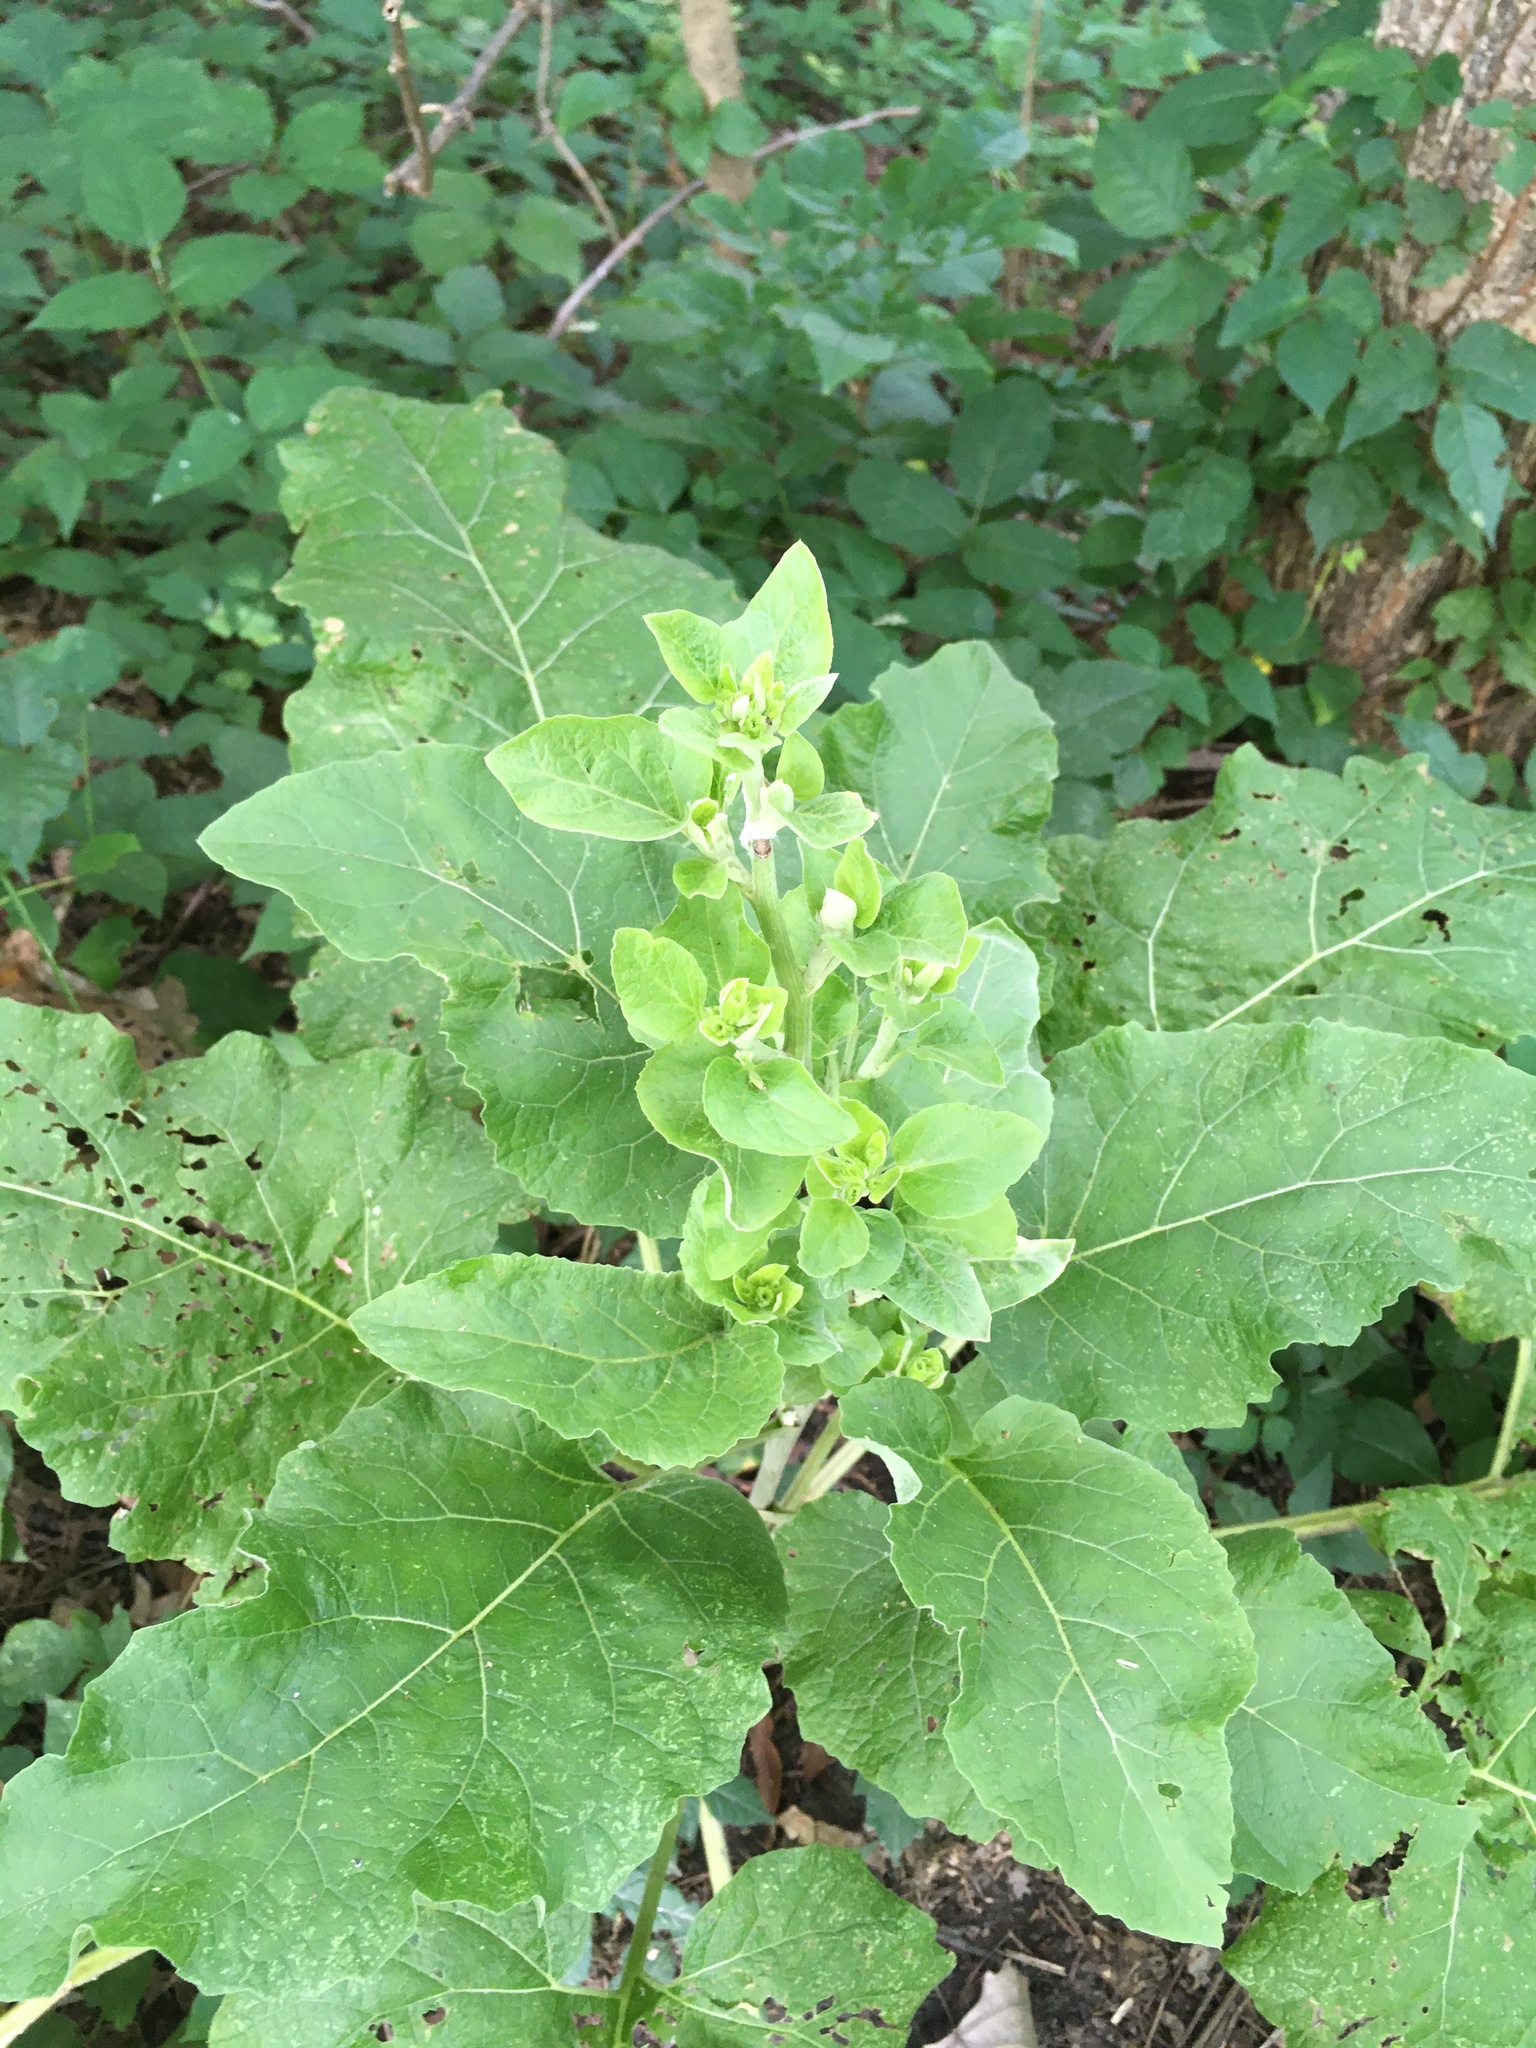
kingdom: Plantae
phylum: Tracheophyta
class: Magnoliopsida
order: Asterales
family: Asteraceae
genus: Arctium
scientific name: Arctium
